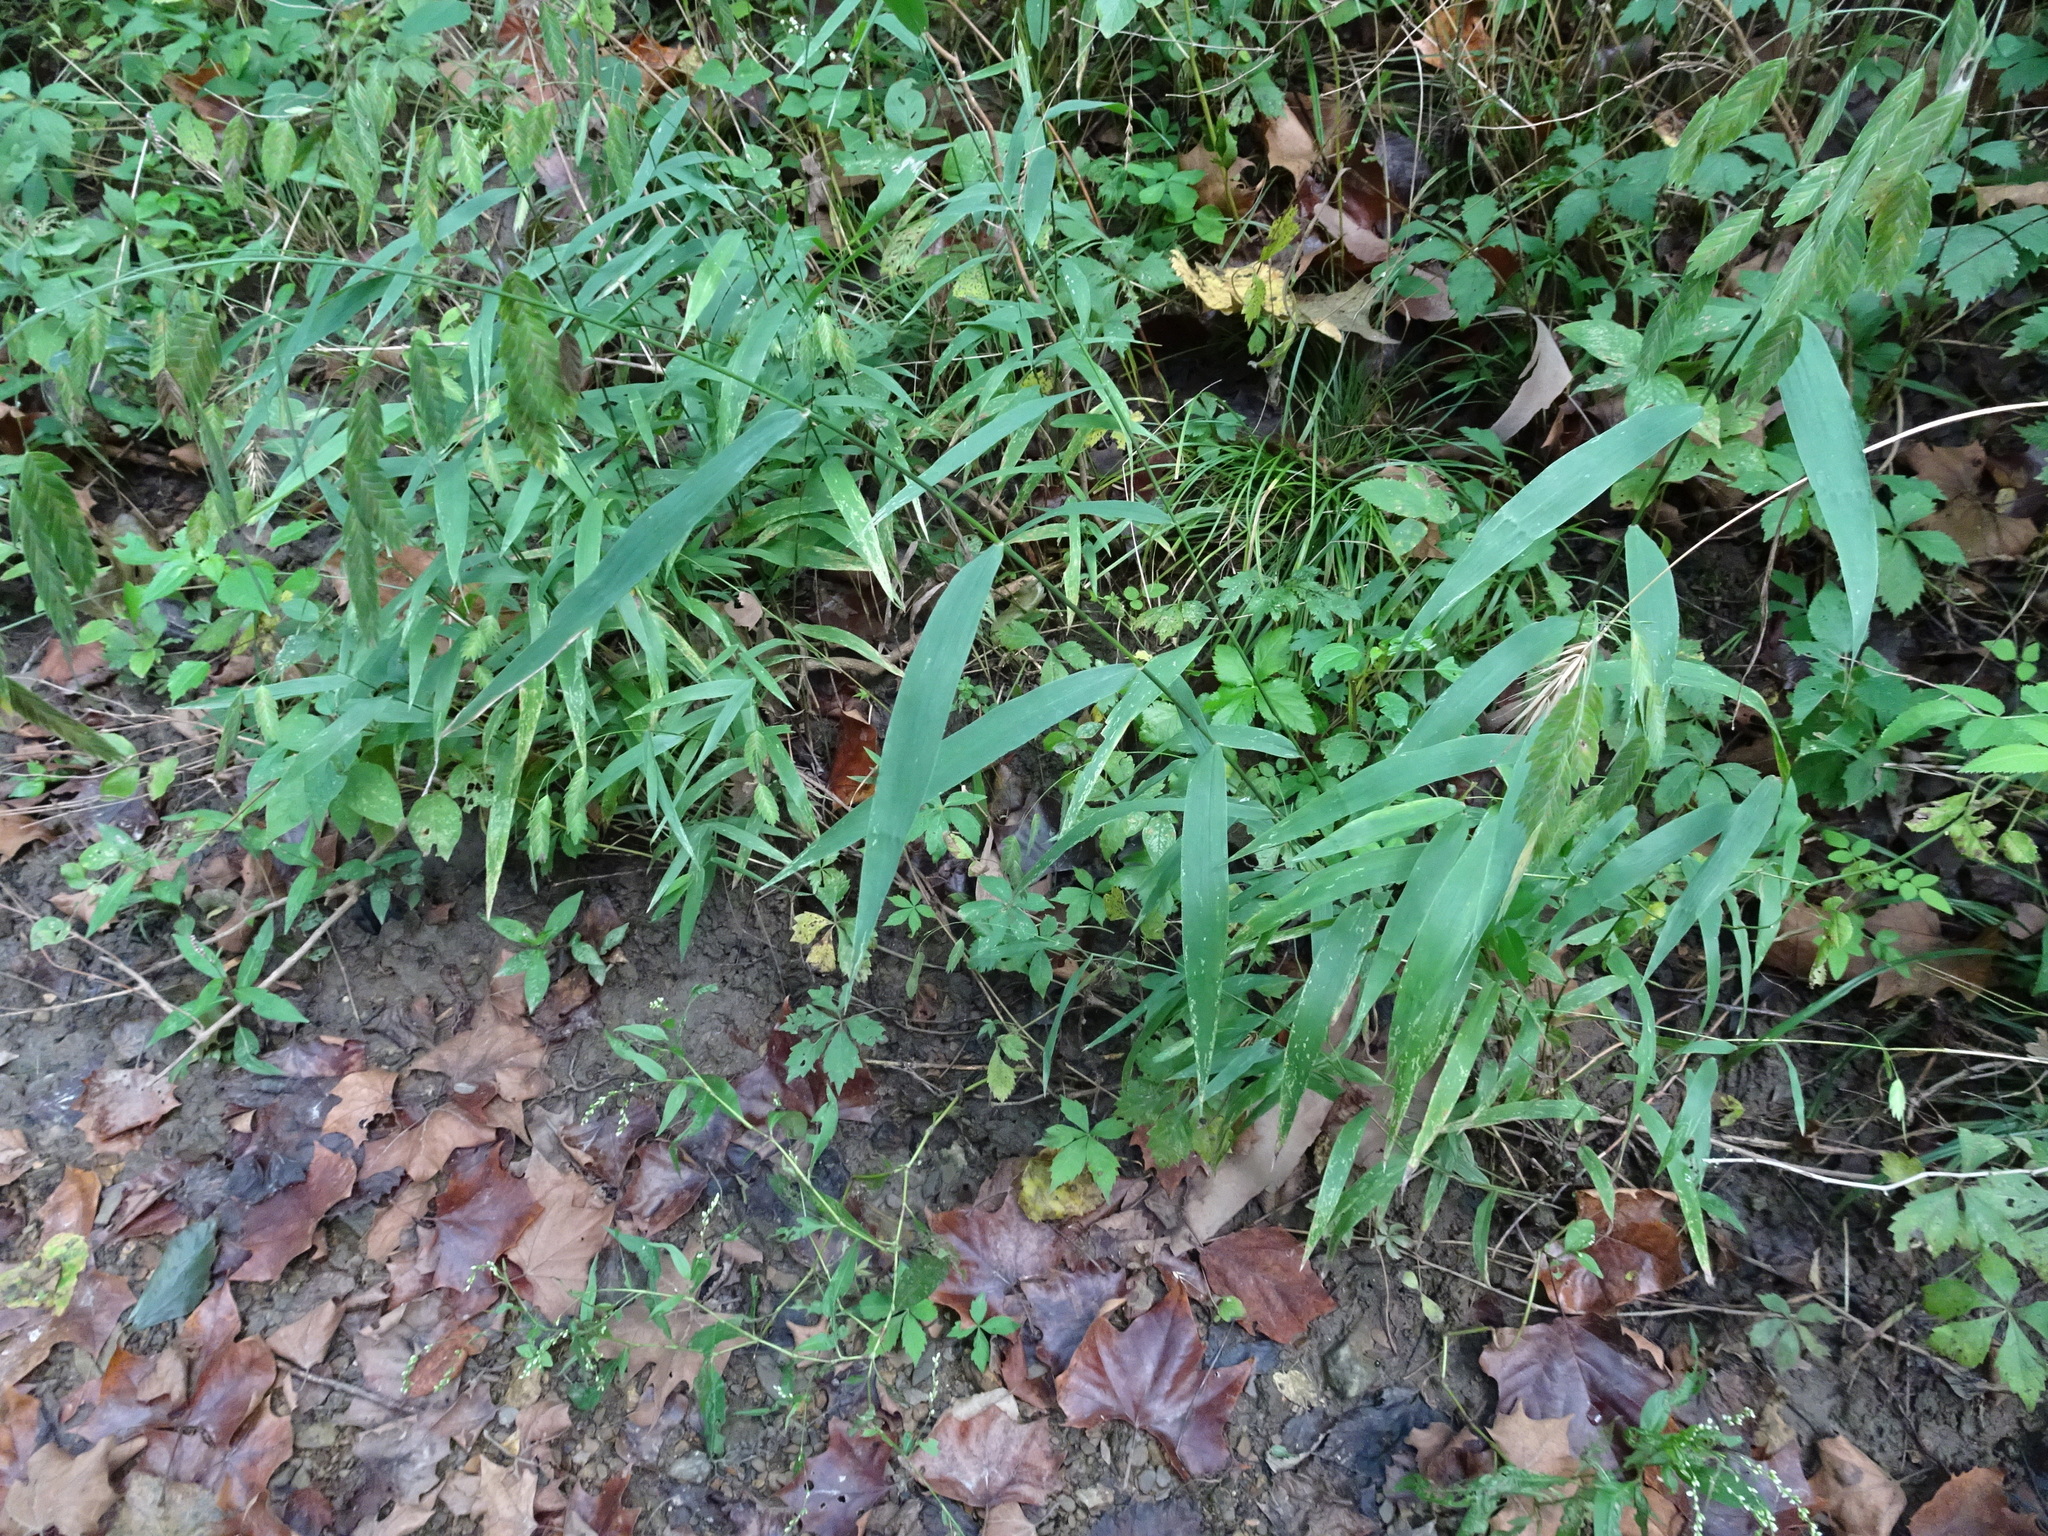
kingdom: Plantae
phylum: Tracheophyta
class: Liliopsida
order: Poales
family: Poaceae
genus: Chasmanthium
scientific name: Chasmanthium latifolium
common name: Broad-leaved chasmanthium
